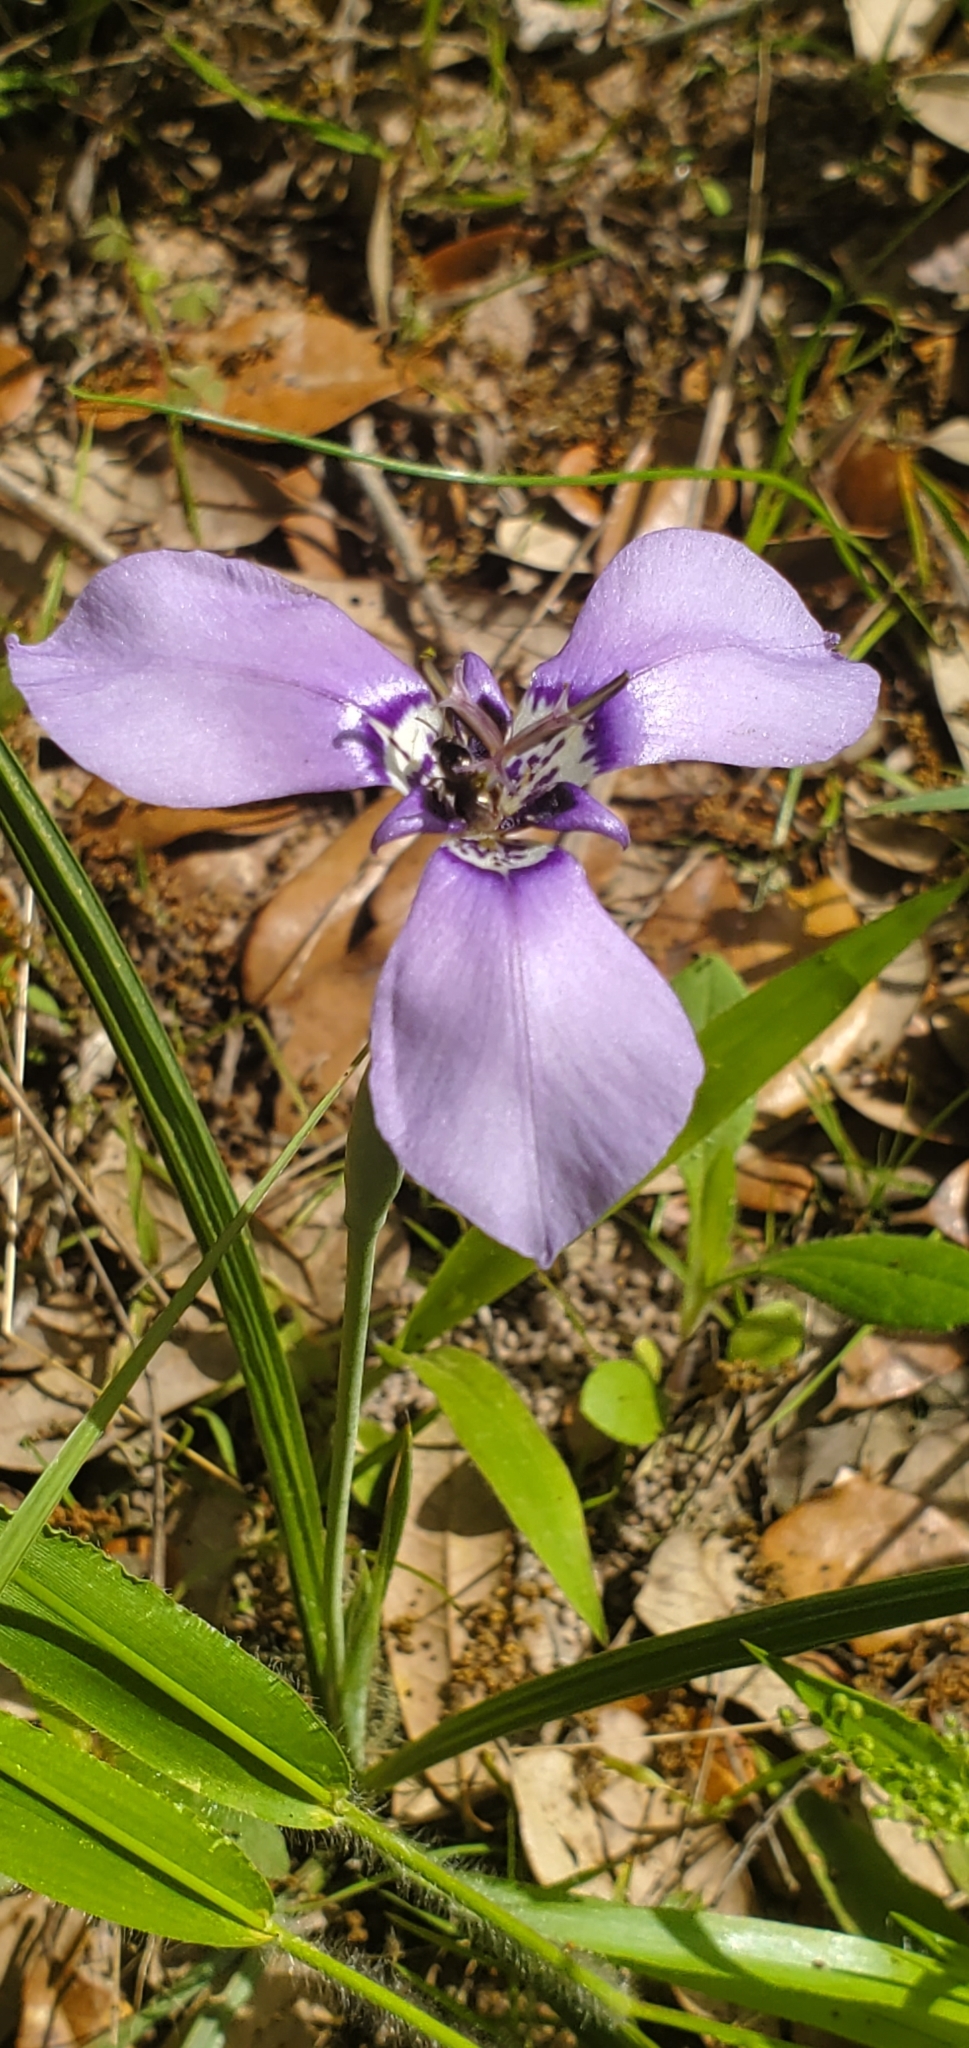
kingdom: Plantae
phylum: Tracheophyta
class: Liliopsida
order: Asparagales
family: Iridaceae
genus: Herbertia
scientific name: Herbertia lahue
